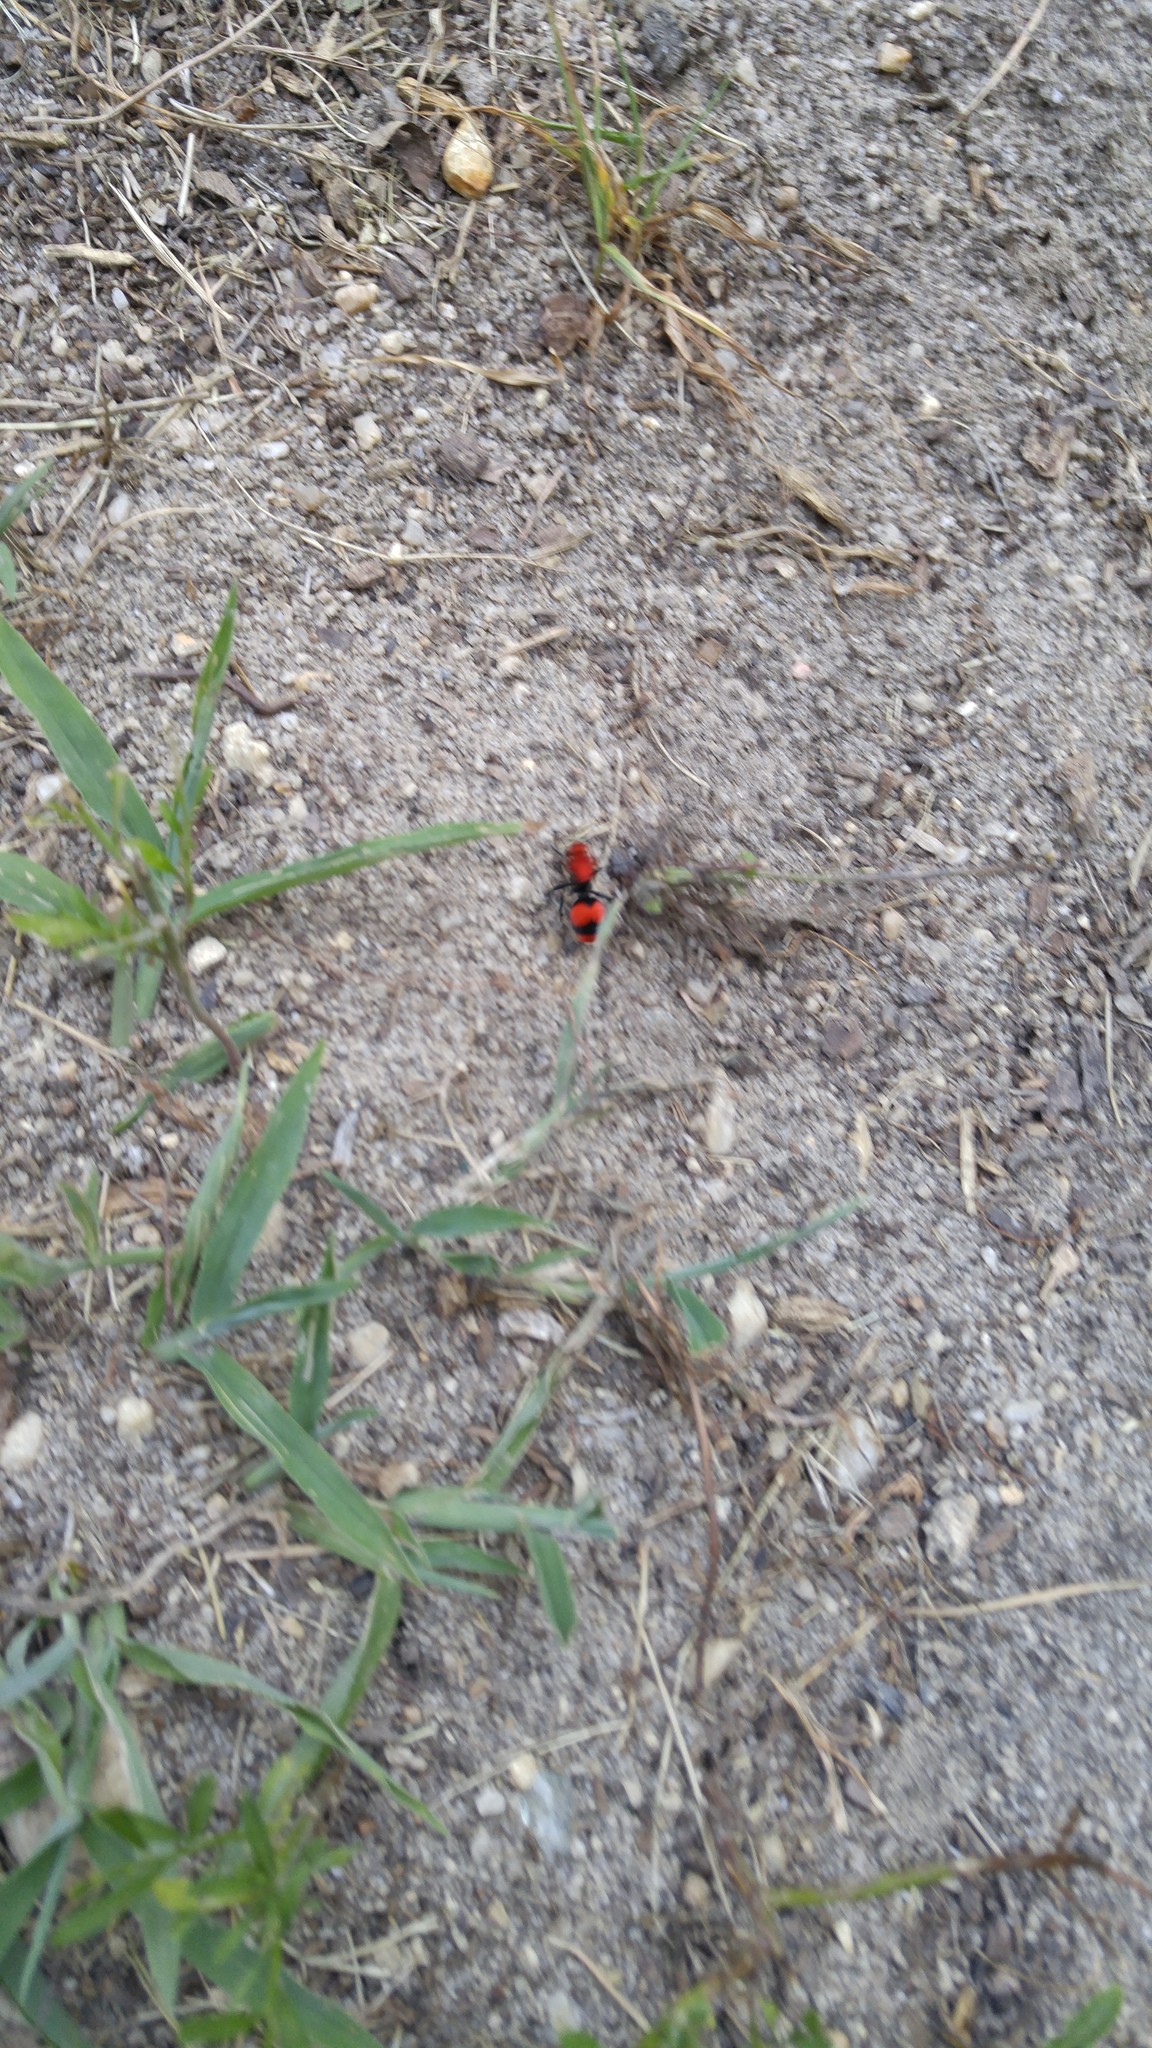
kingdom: Animalia
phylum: Arthropoda
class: Insecta
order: Hymenoptera
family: Mutillidae
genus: Dasymutilla
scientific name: Dasymutilla occidentalis
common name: Common eastern velvet ant
